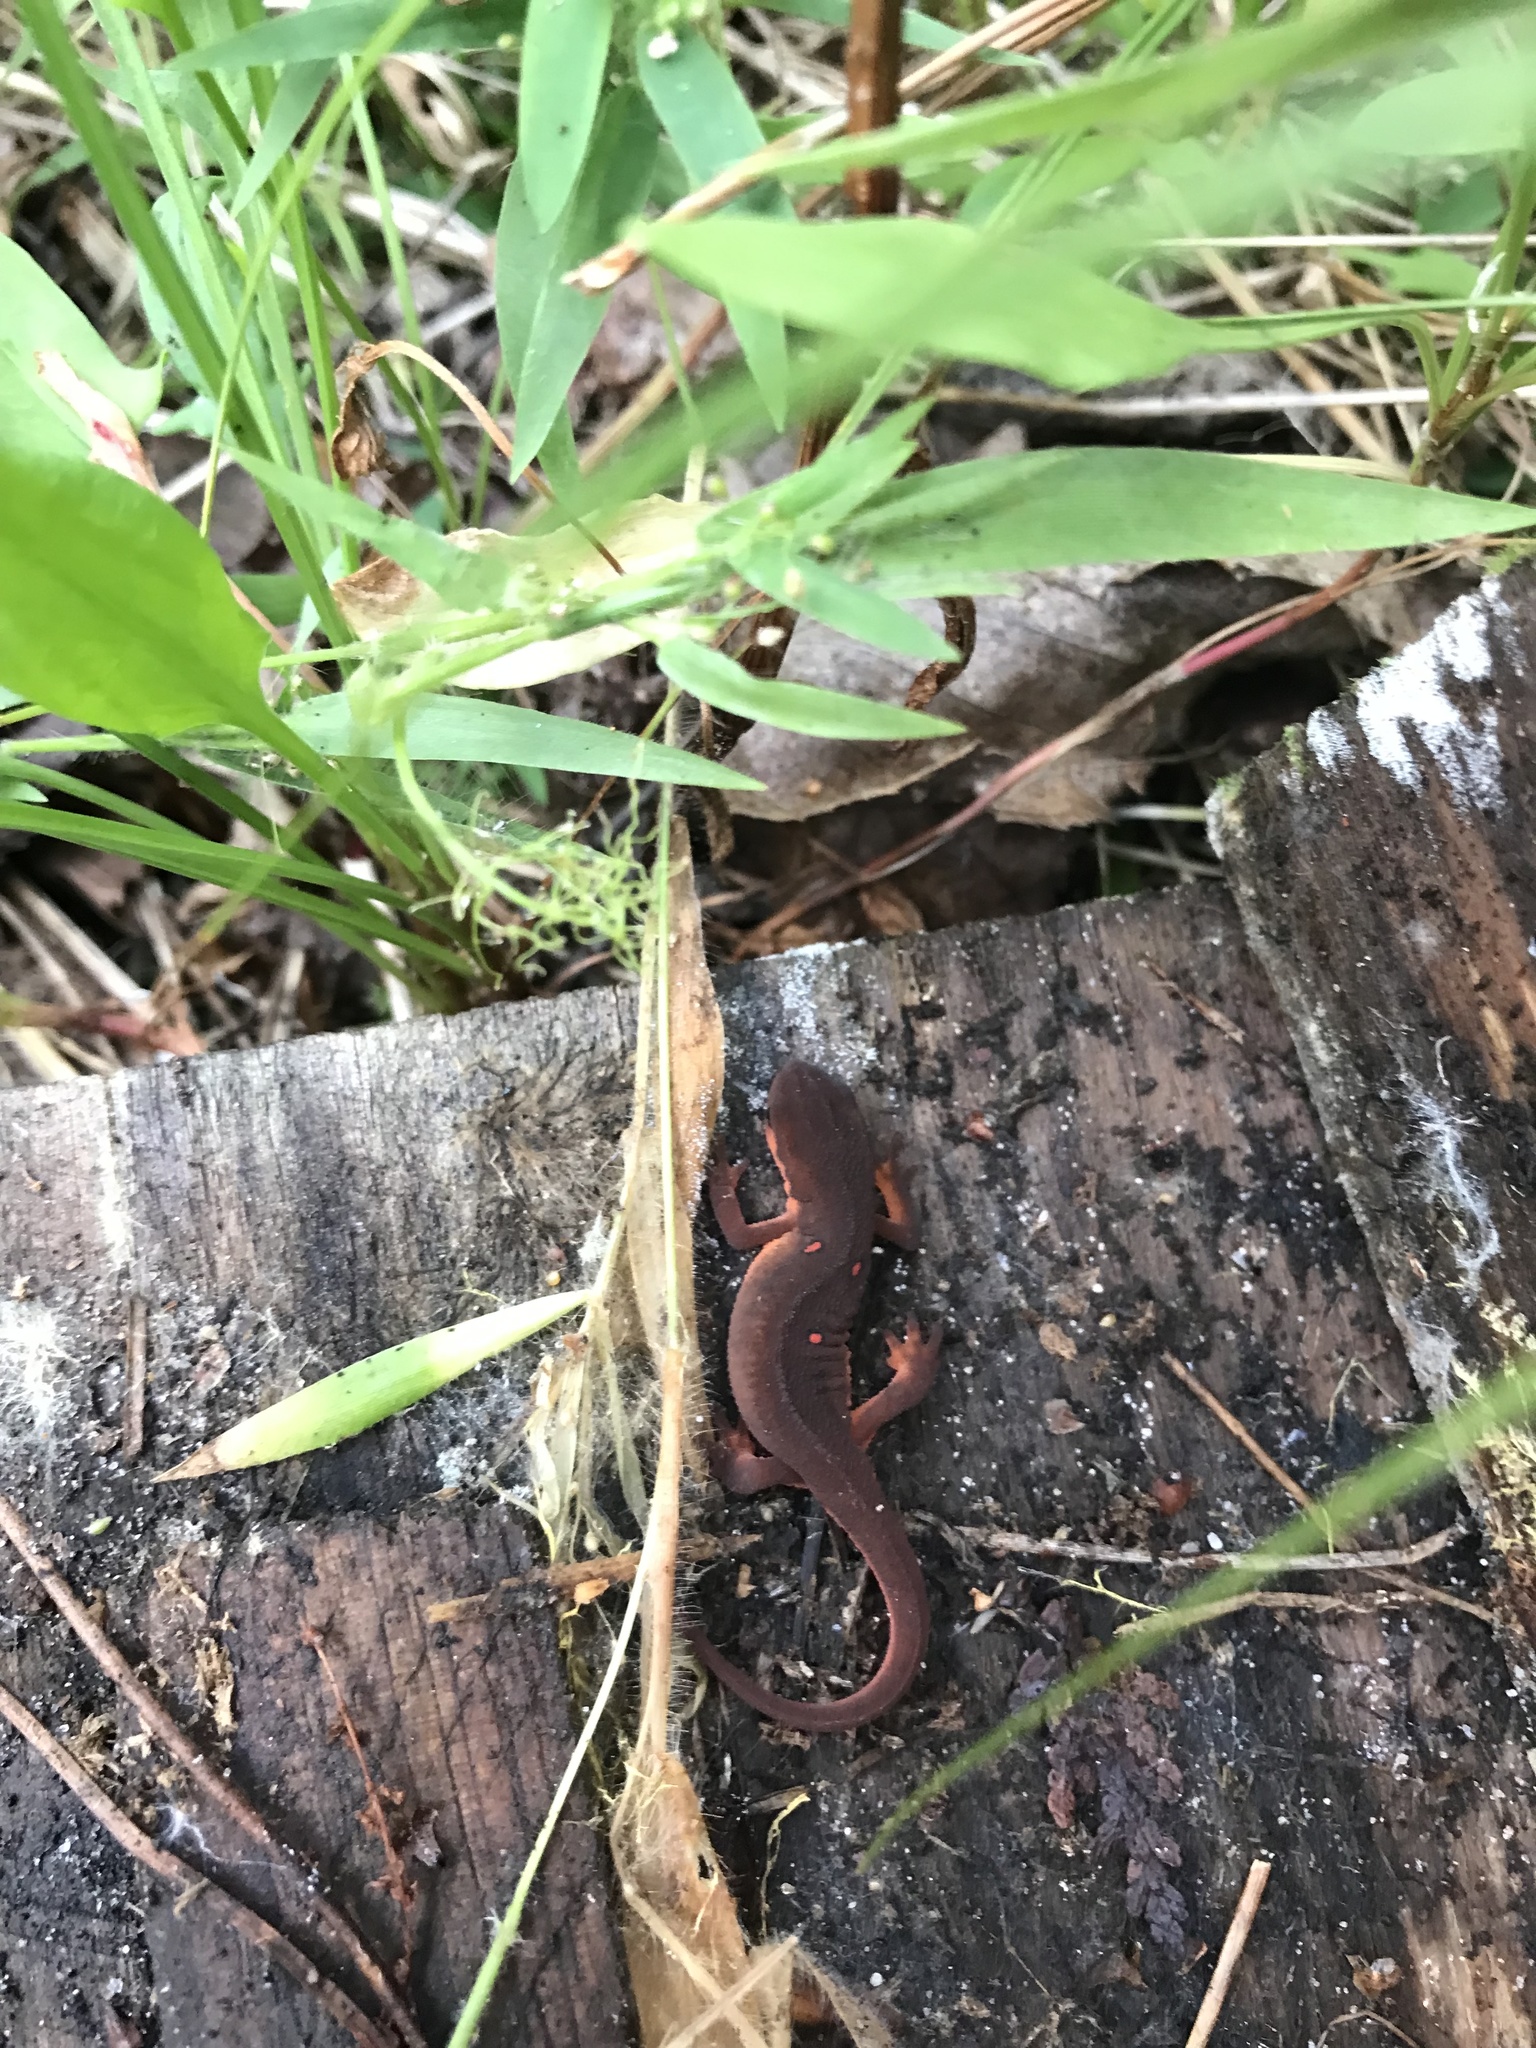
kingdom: Animalia
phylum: Chordata
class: Amphibia
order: Caudata
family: Salamandridae
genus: Notophthalmus
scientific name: Notophthalmus viridescens
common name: Eastern newt
